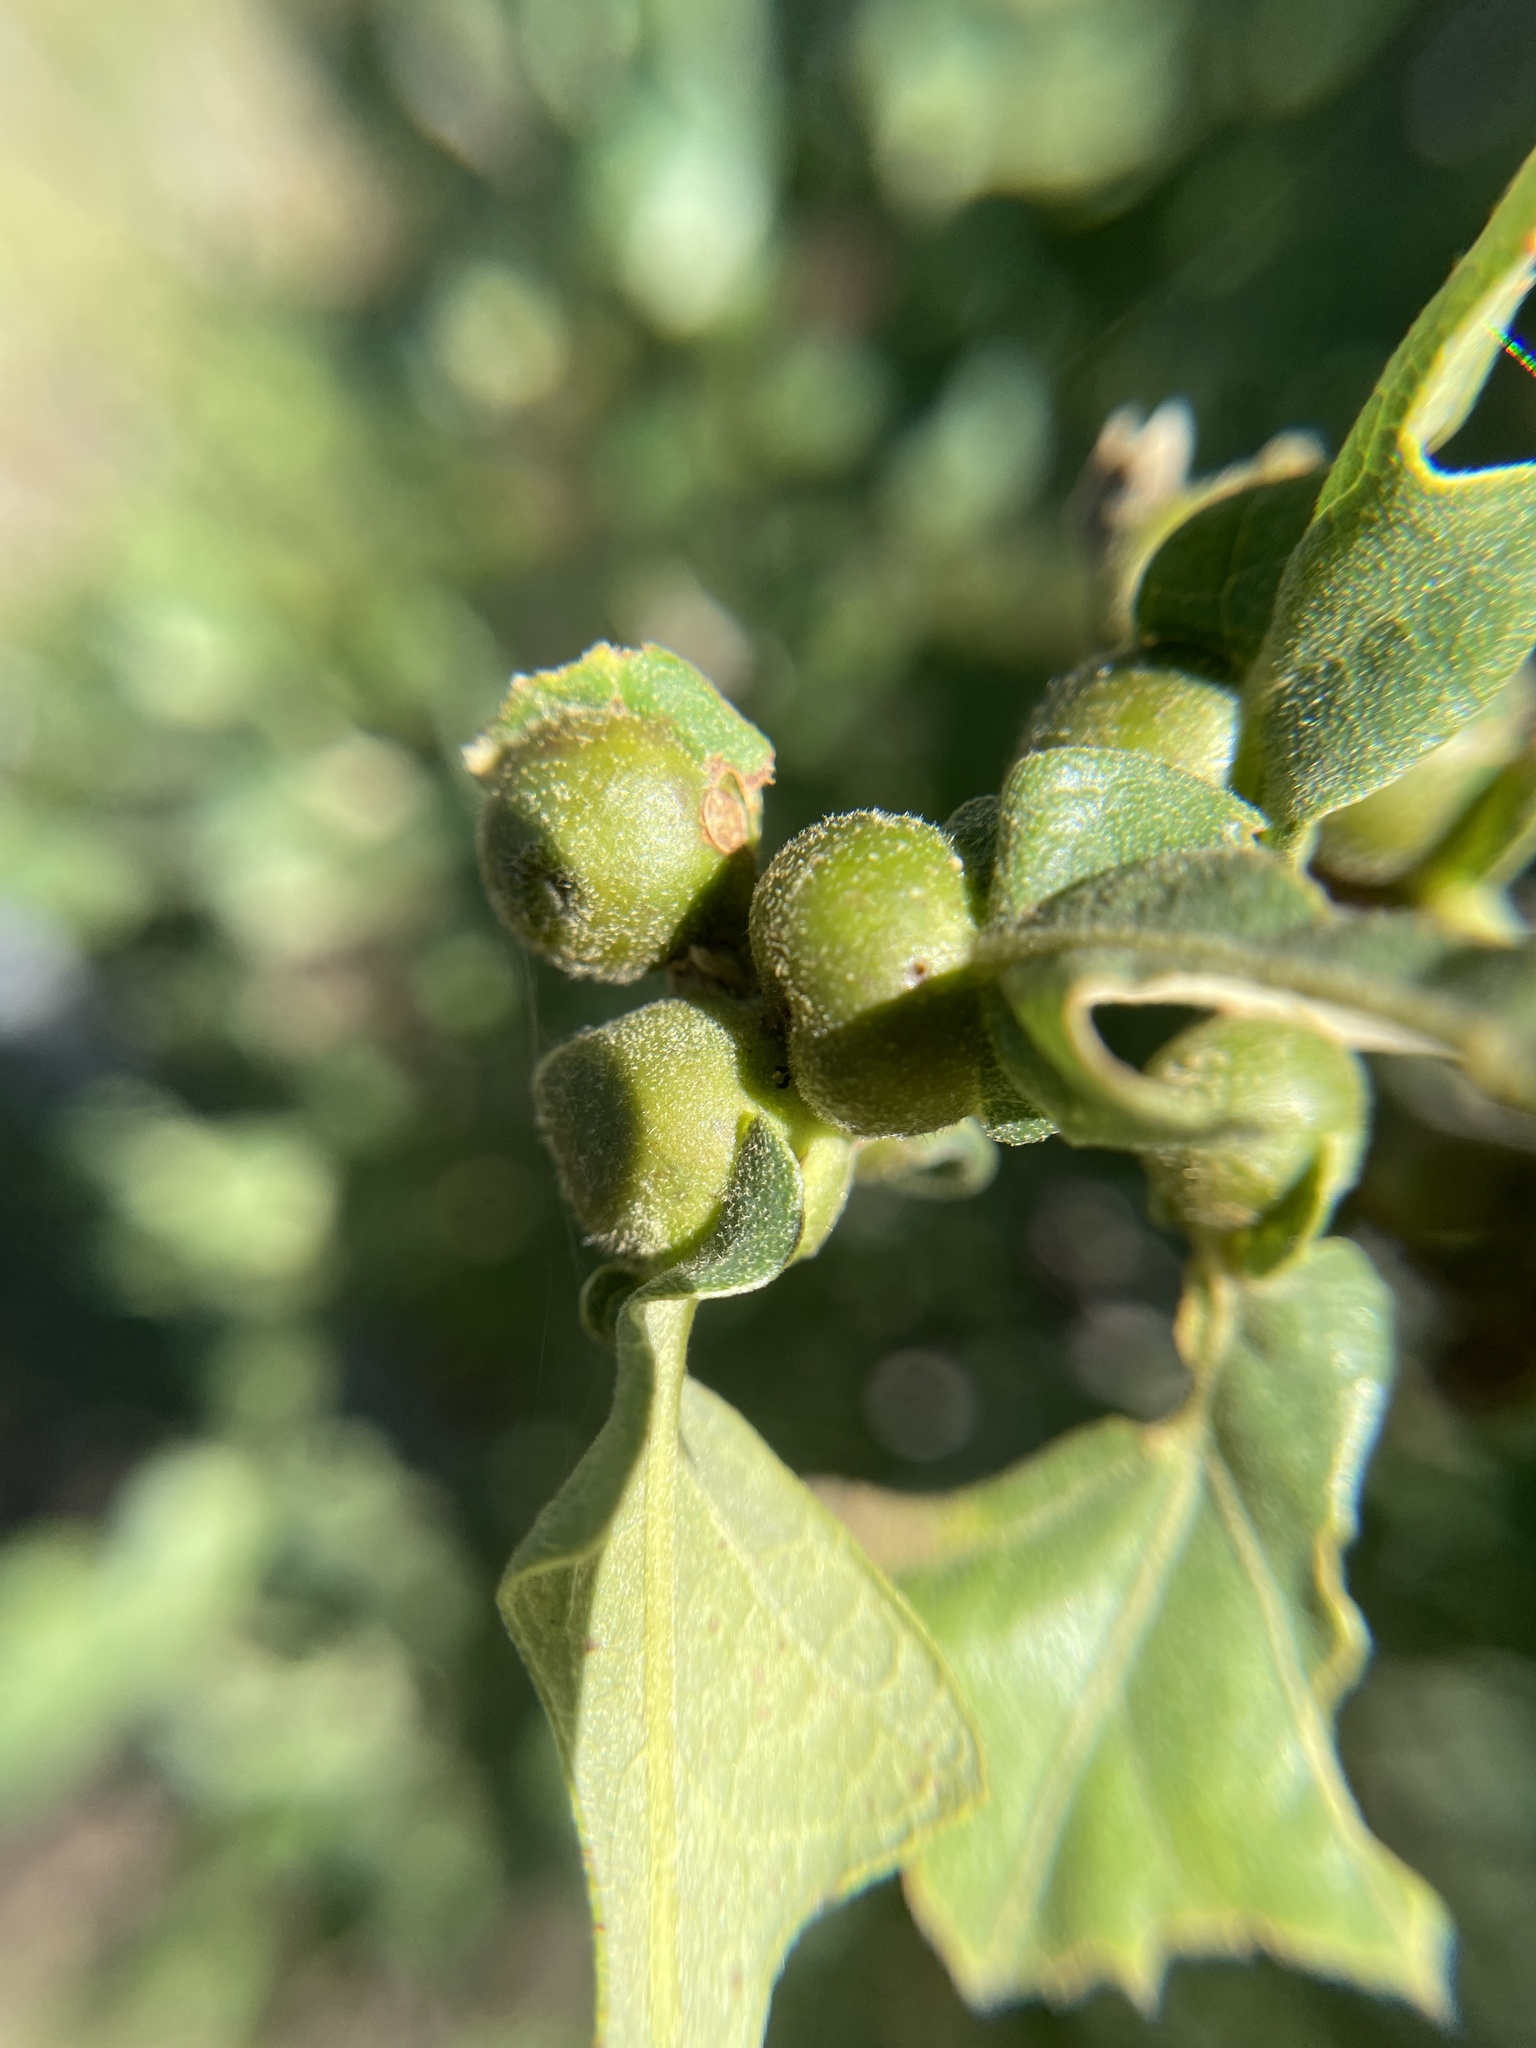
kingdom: Animalia
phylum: Arthropoda
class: Insecta
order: Hymenoptera
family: Cynipidae
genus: Andricus
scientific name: Andricus
